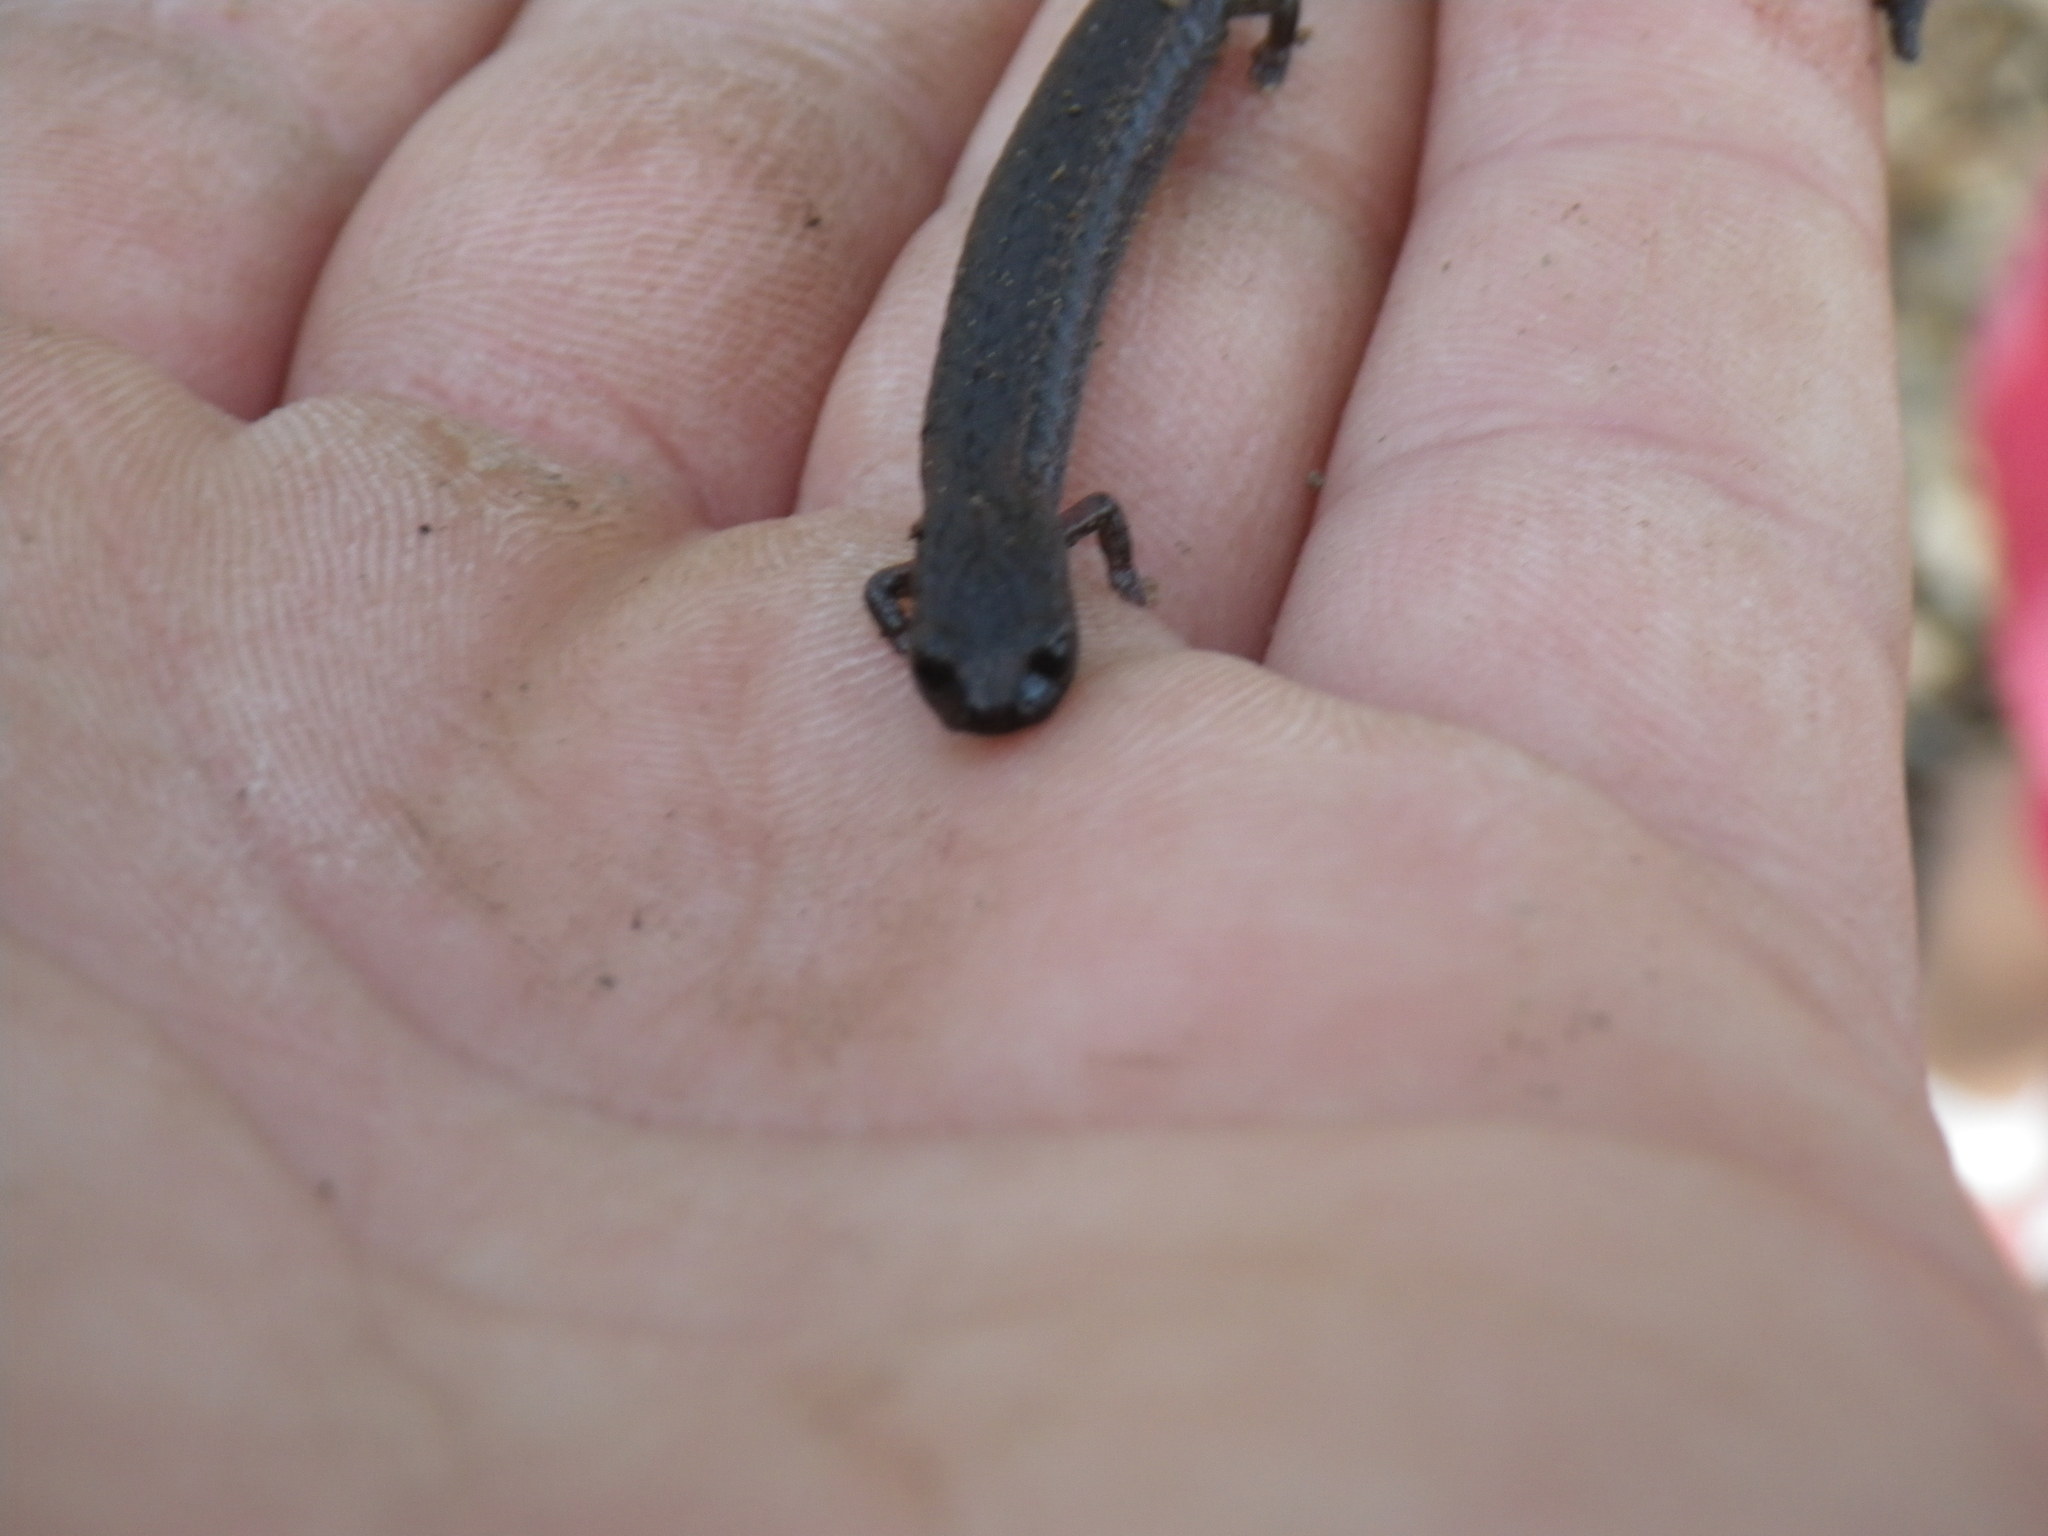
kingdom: Animalia
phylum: Chordata
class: Amphibia
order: Caudata
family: Plethodontidae
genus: Batrachoseps
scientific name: Batrachoseps attenuatus
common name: California slender salamander
